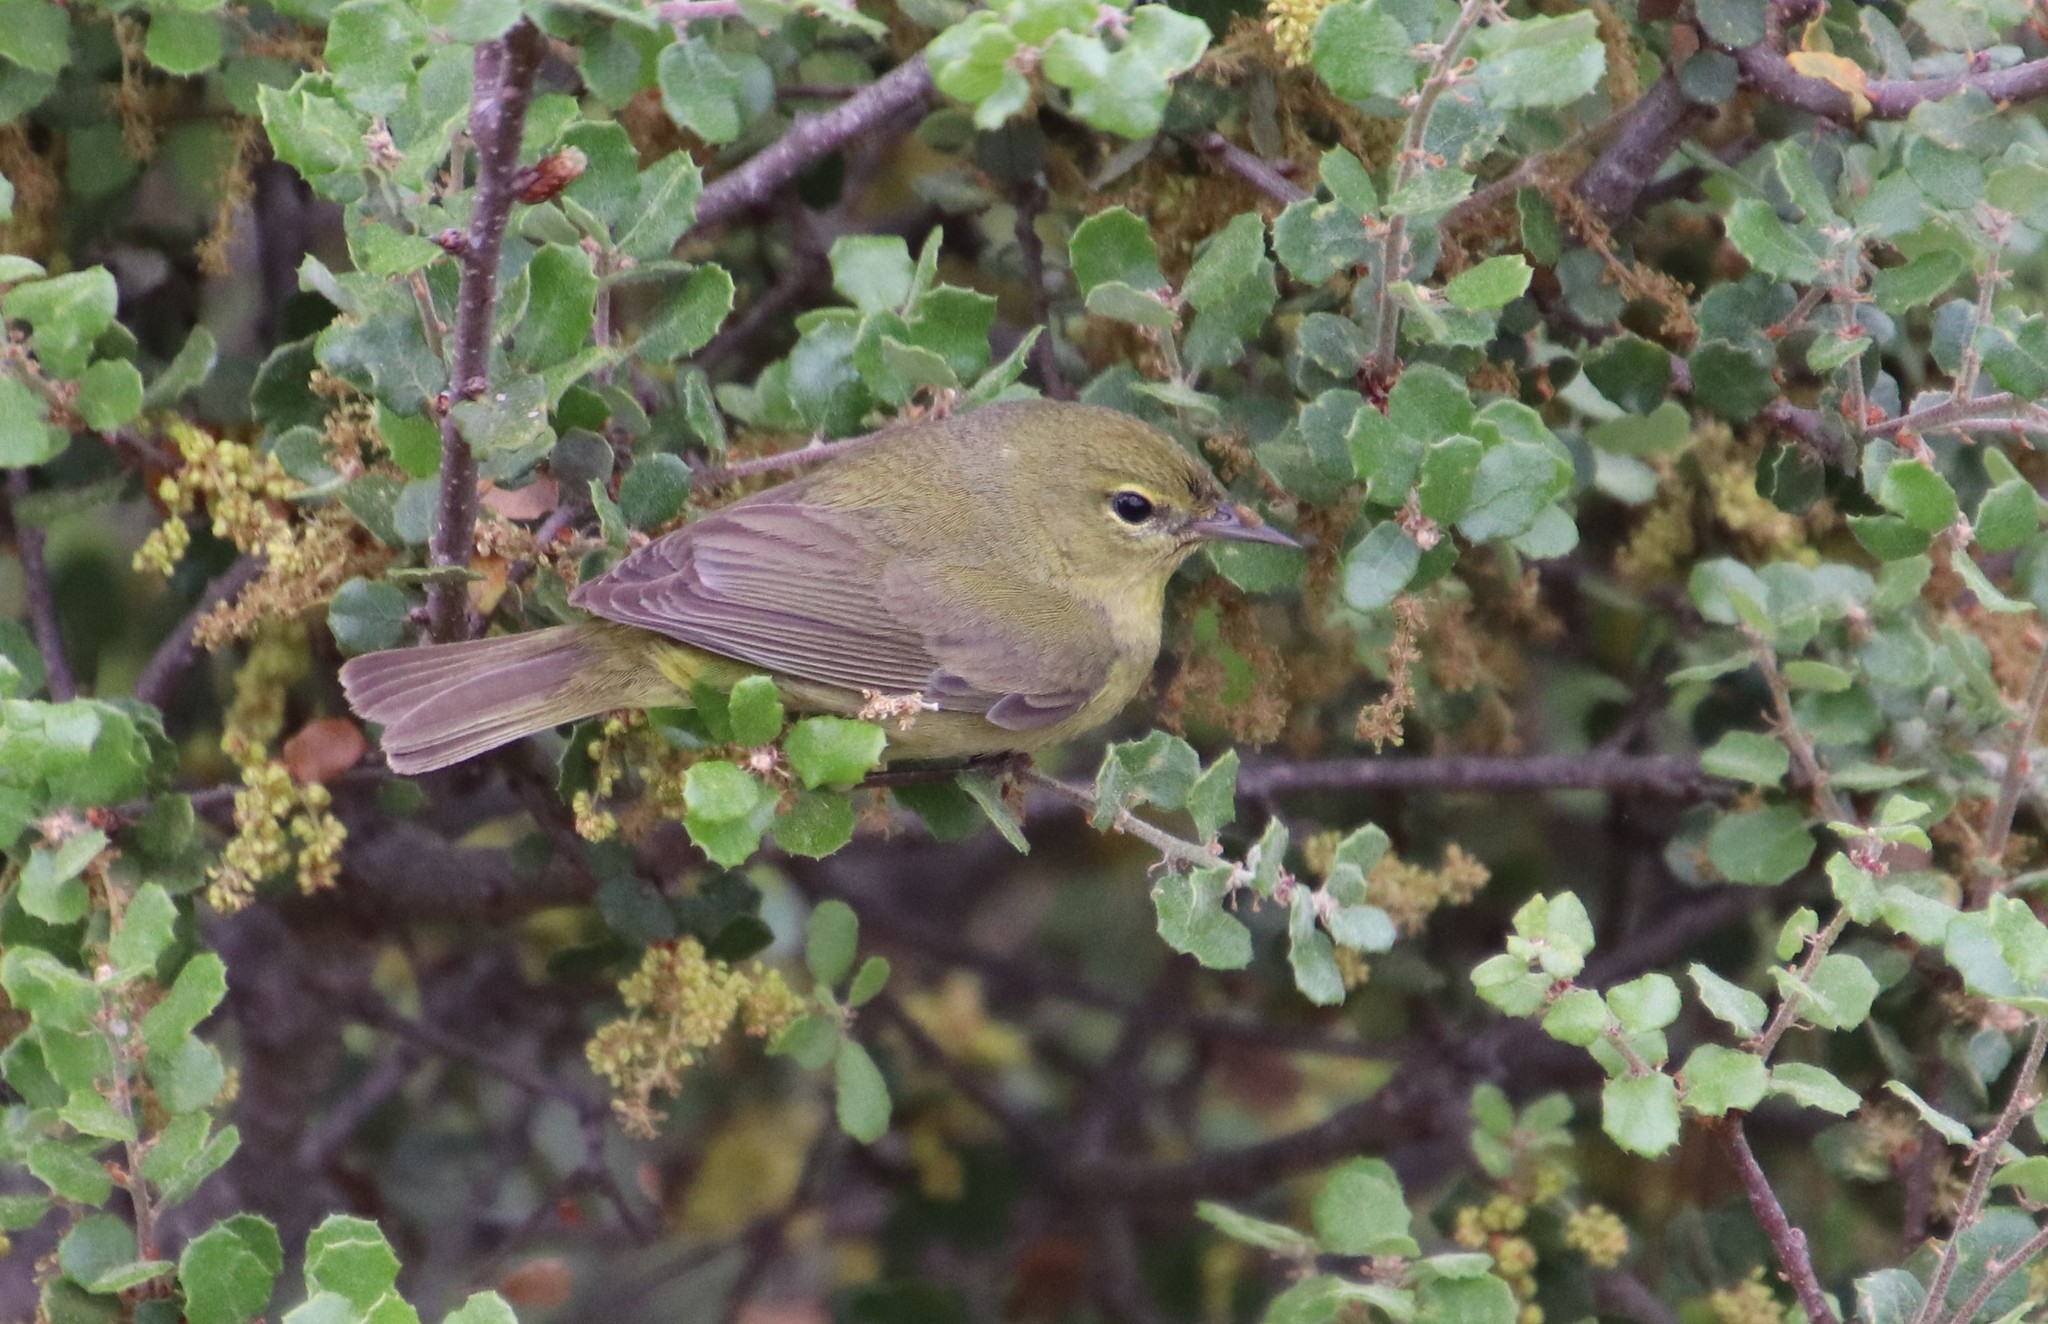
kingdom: Animalia
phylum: Chordata
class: Aves
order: Passeriformes
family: Parulidae
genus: Leiothlypis
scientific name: Leiothlypis celata
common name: Orange-crowned warbler
